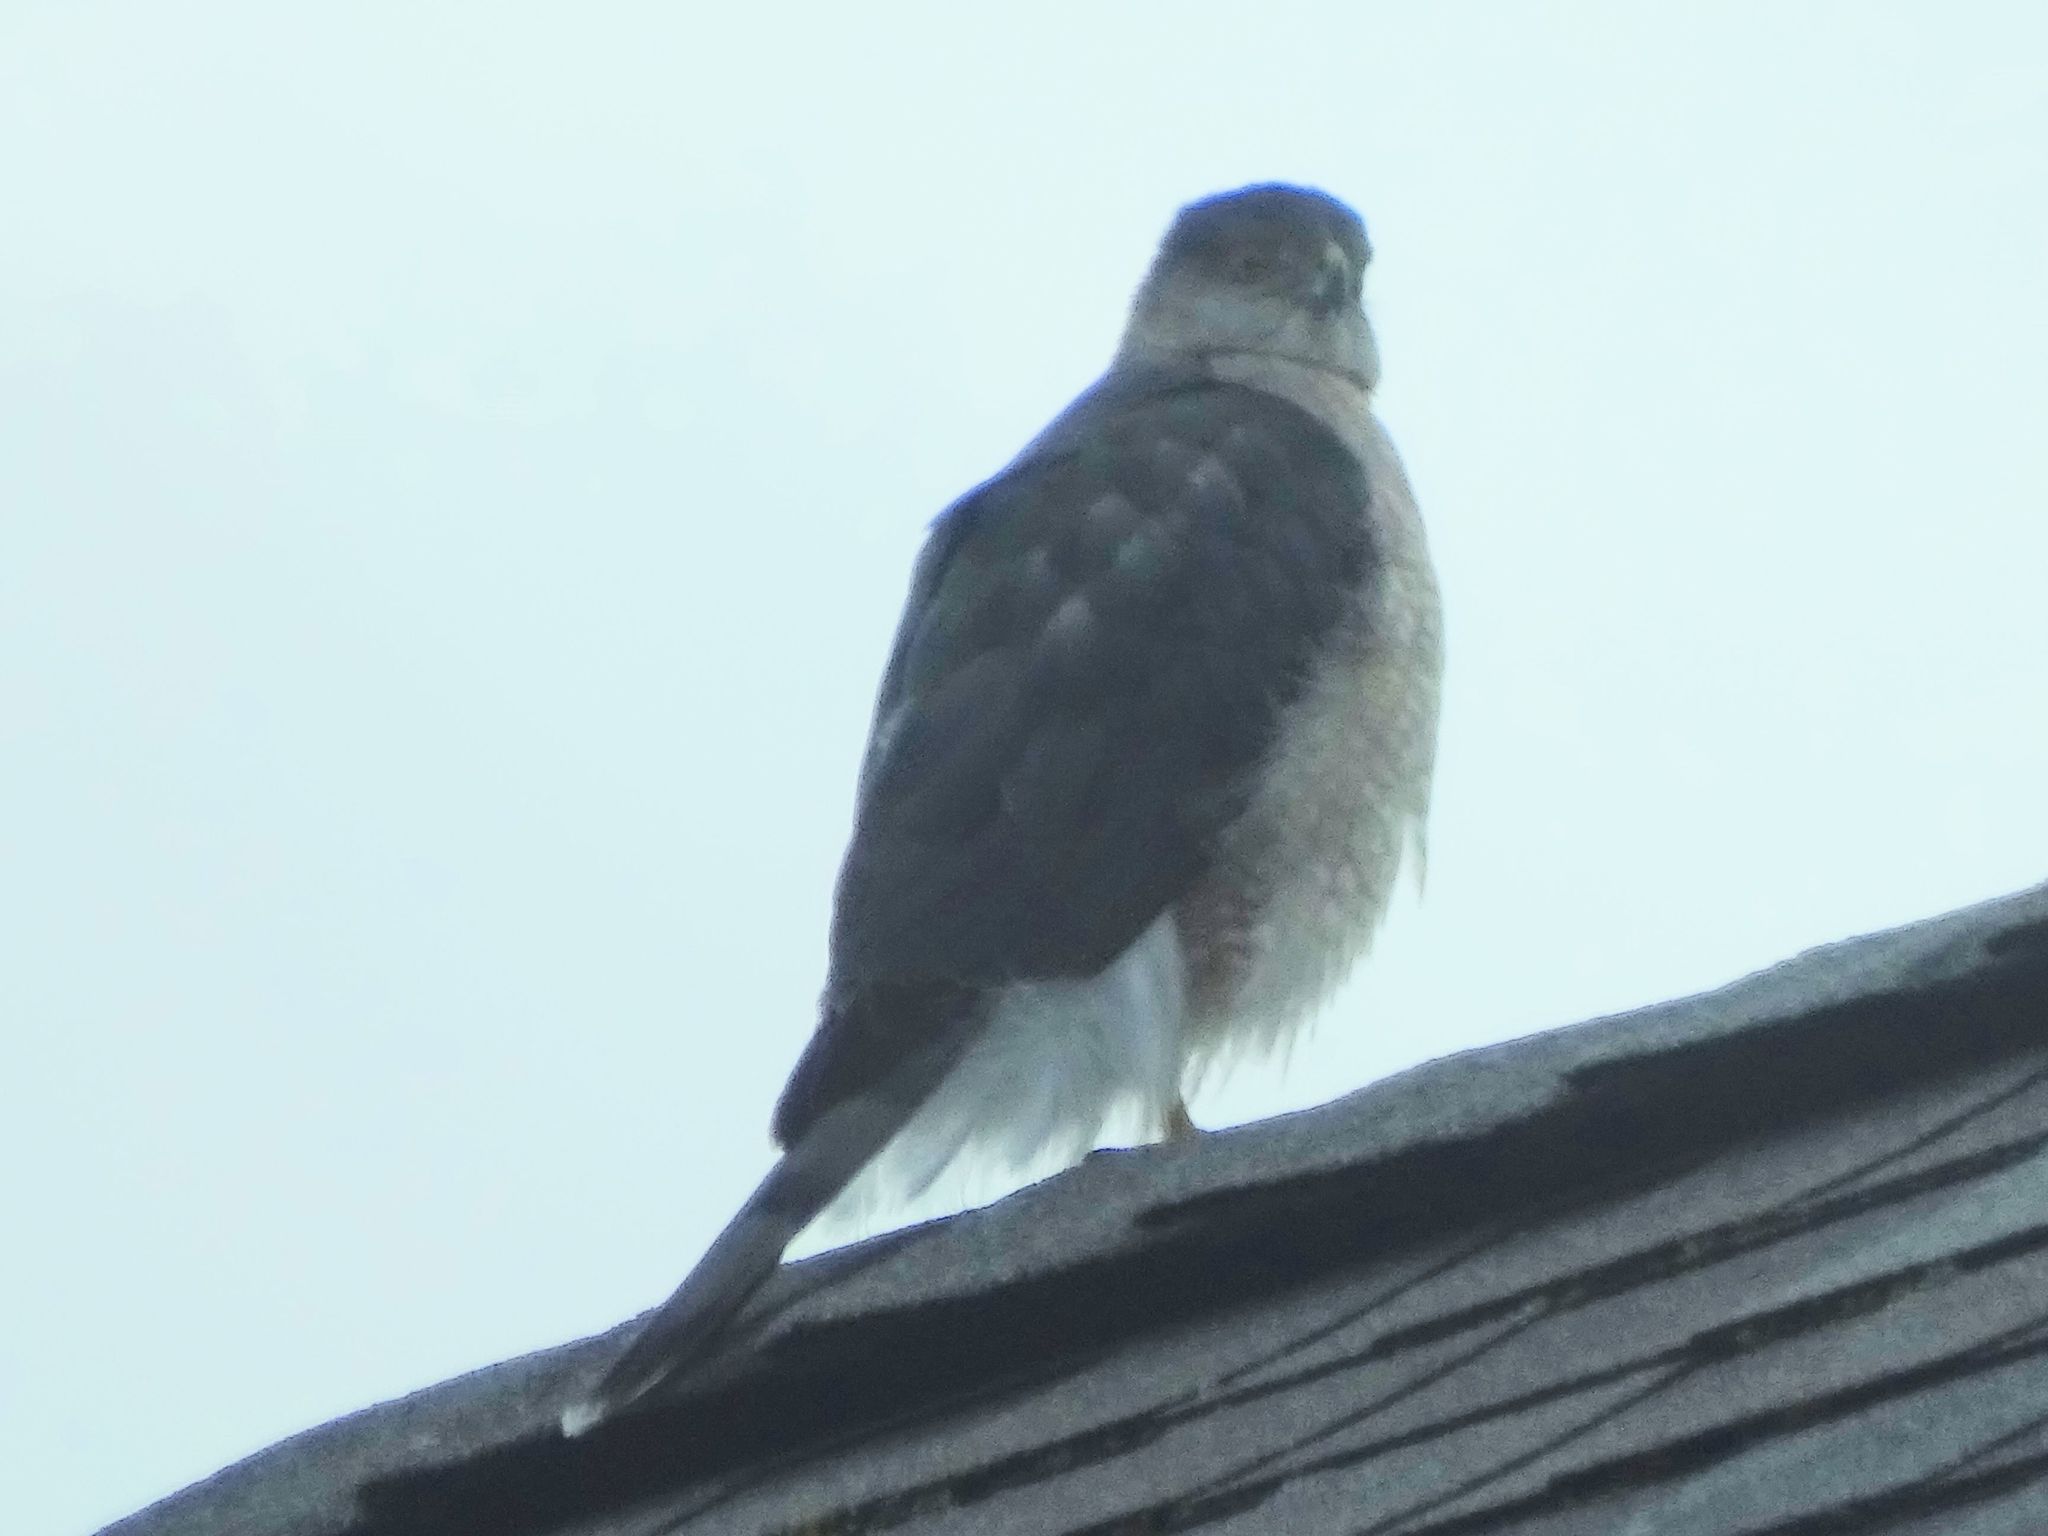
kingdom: Animalia
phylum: Chordata
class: Aves
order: Accipitriformes
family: Accipitridae
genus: Accipiter
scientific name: Accipiter cooperii
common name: Cooper's hawk
